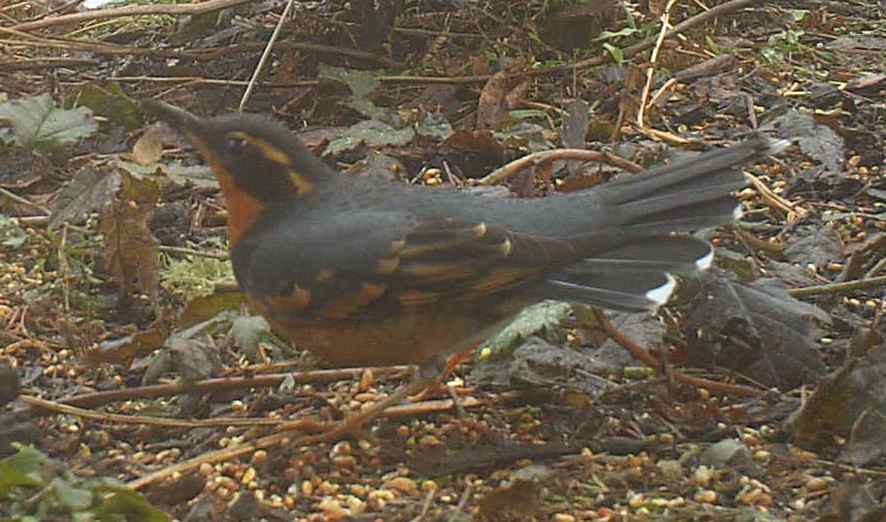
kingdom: Animalia
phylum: Chordata
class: Aves
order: Passeriformes
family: Turdidae
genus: Ixoreus
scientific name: Ixoreus naevius
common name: Varied thrush
